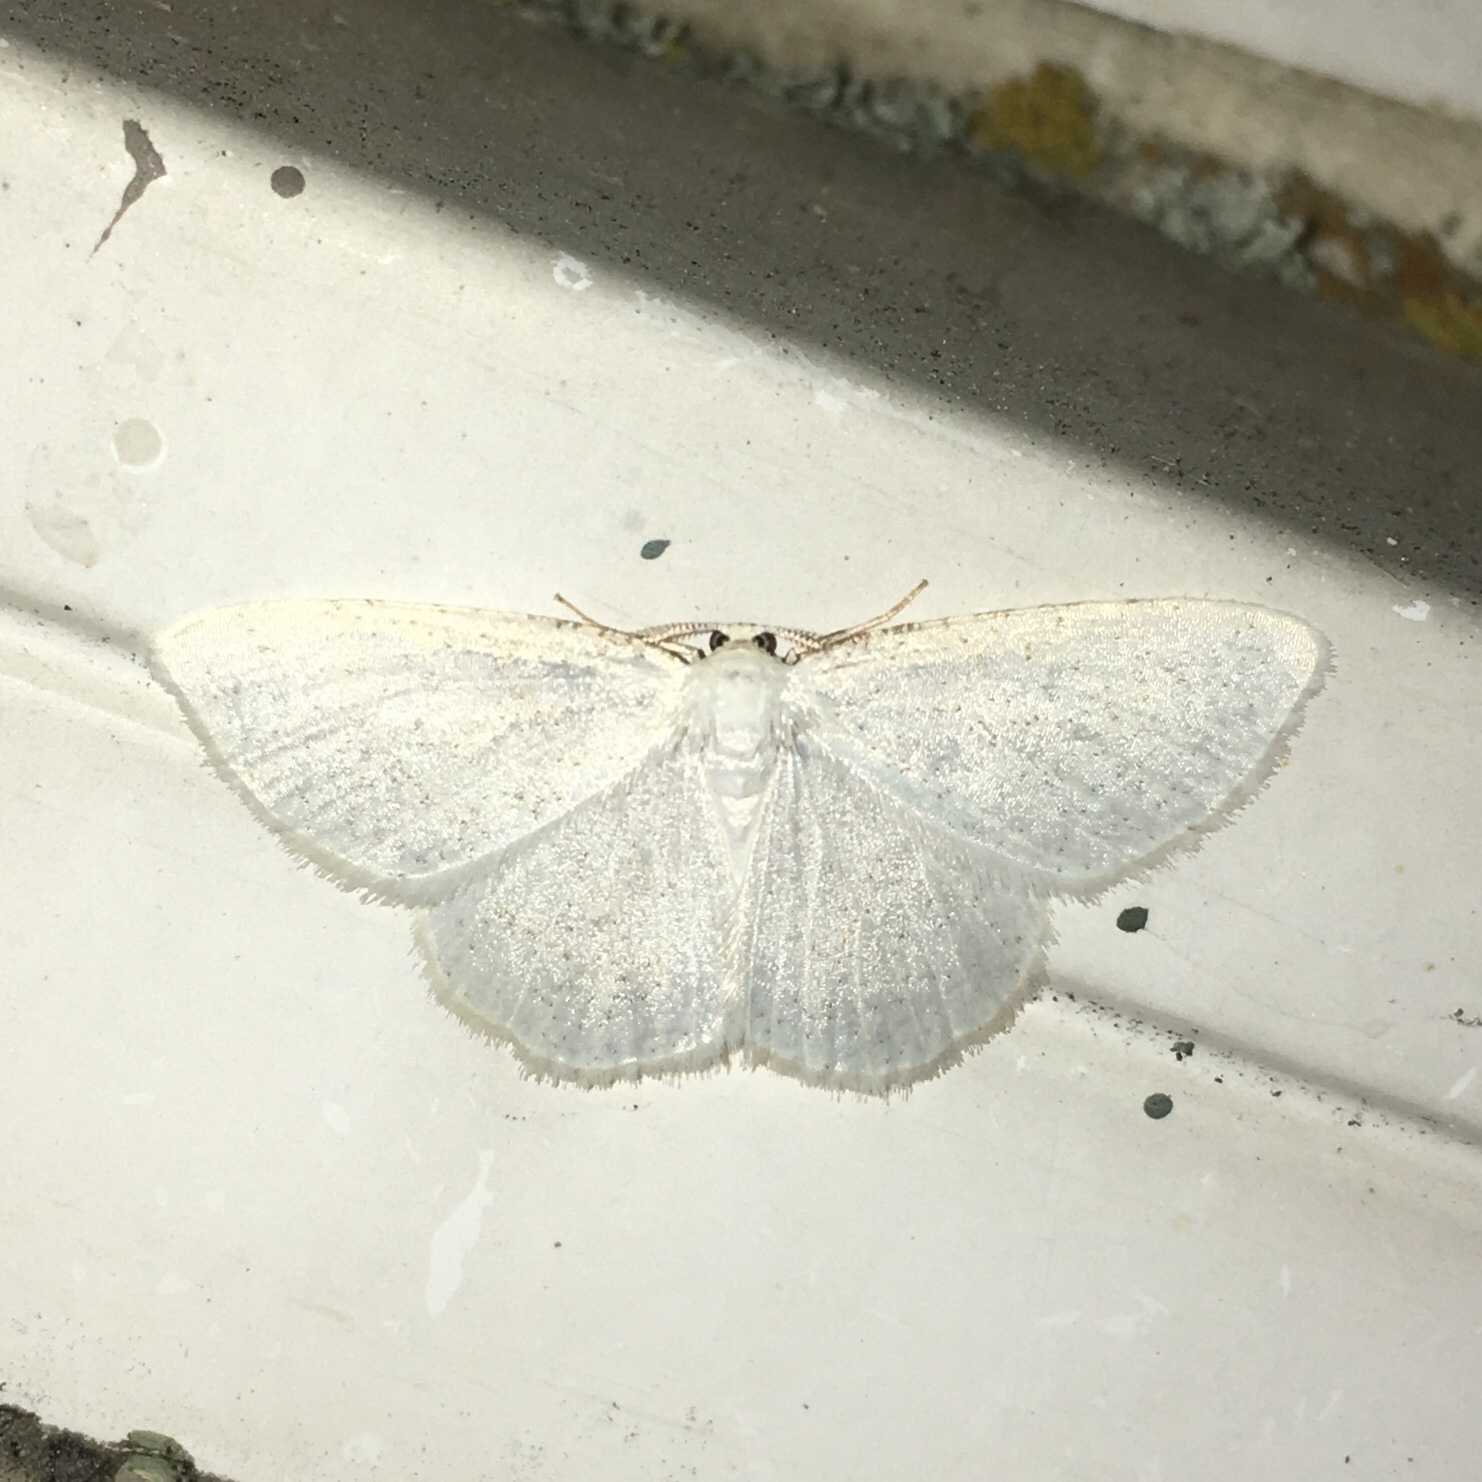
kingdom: Animalia
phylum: Arthropoda
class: Insecta
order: Lepidoptera
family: Geometridae
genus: Protitame
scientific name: Protitame virginalis
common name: Virgin moth
